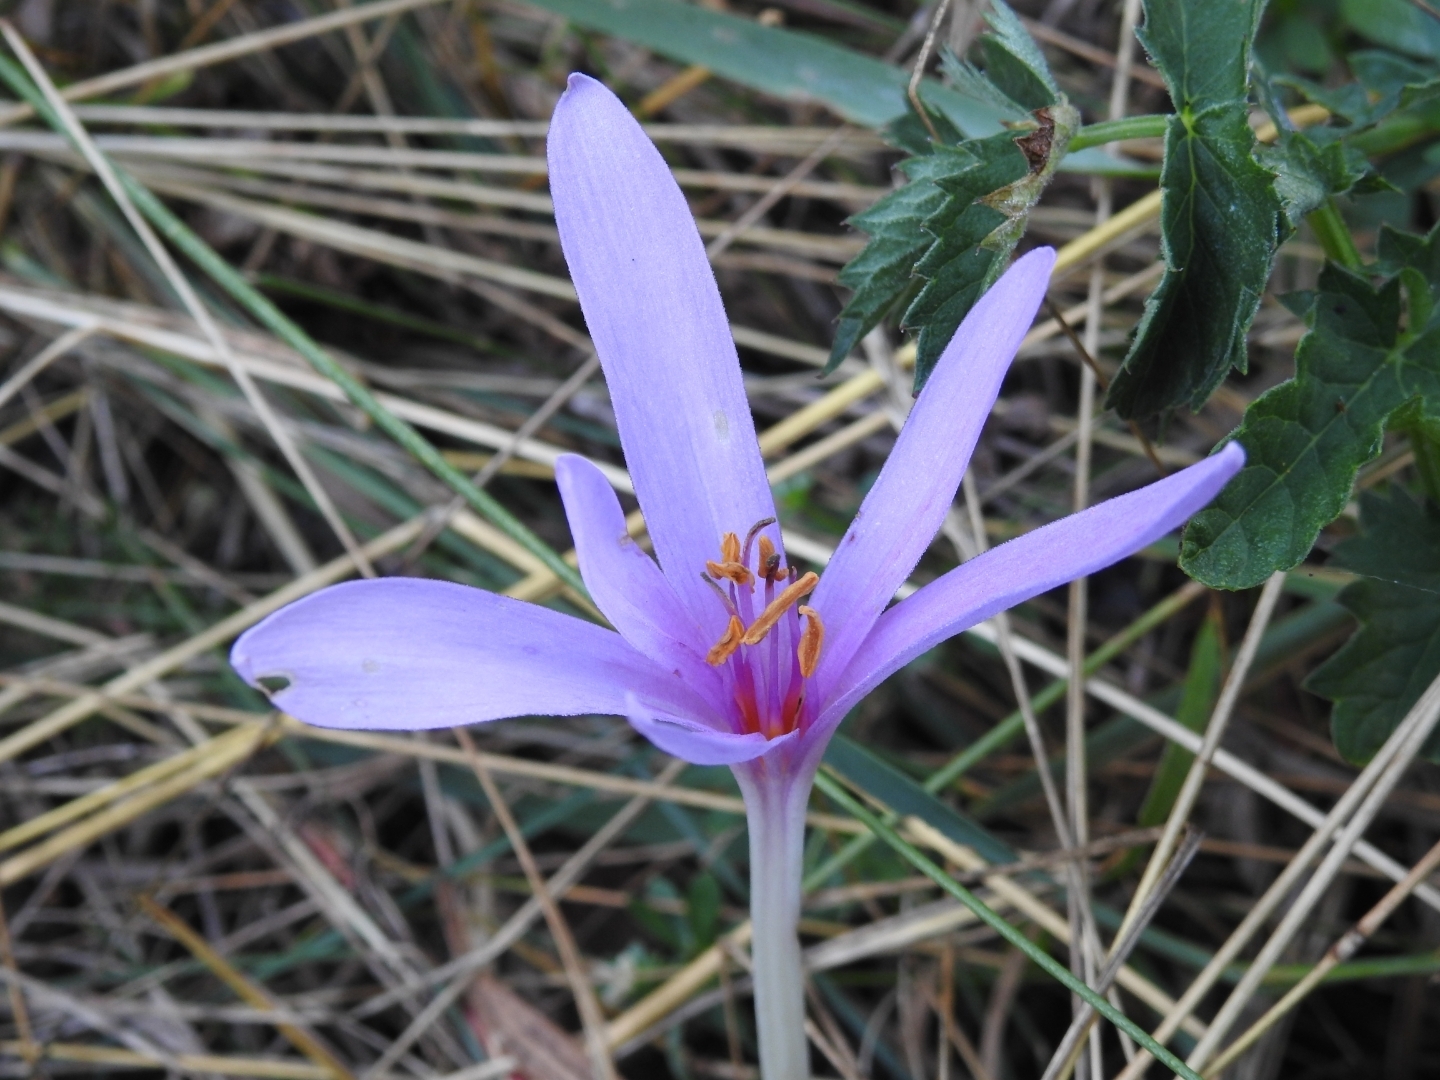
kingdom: Plantae
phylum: Tracheophyta
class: Liliopsida
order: Liliales
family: Colchicaceae
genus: Colchicum
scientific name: Colchicum autumnale
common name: Autumn crocus
